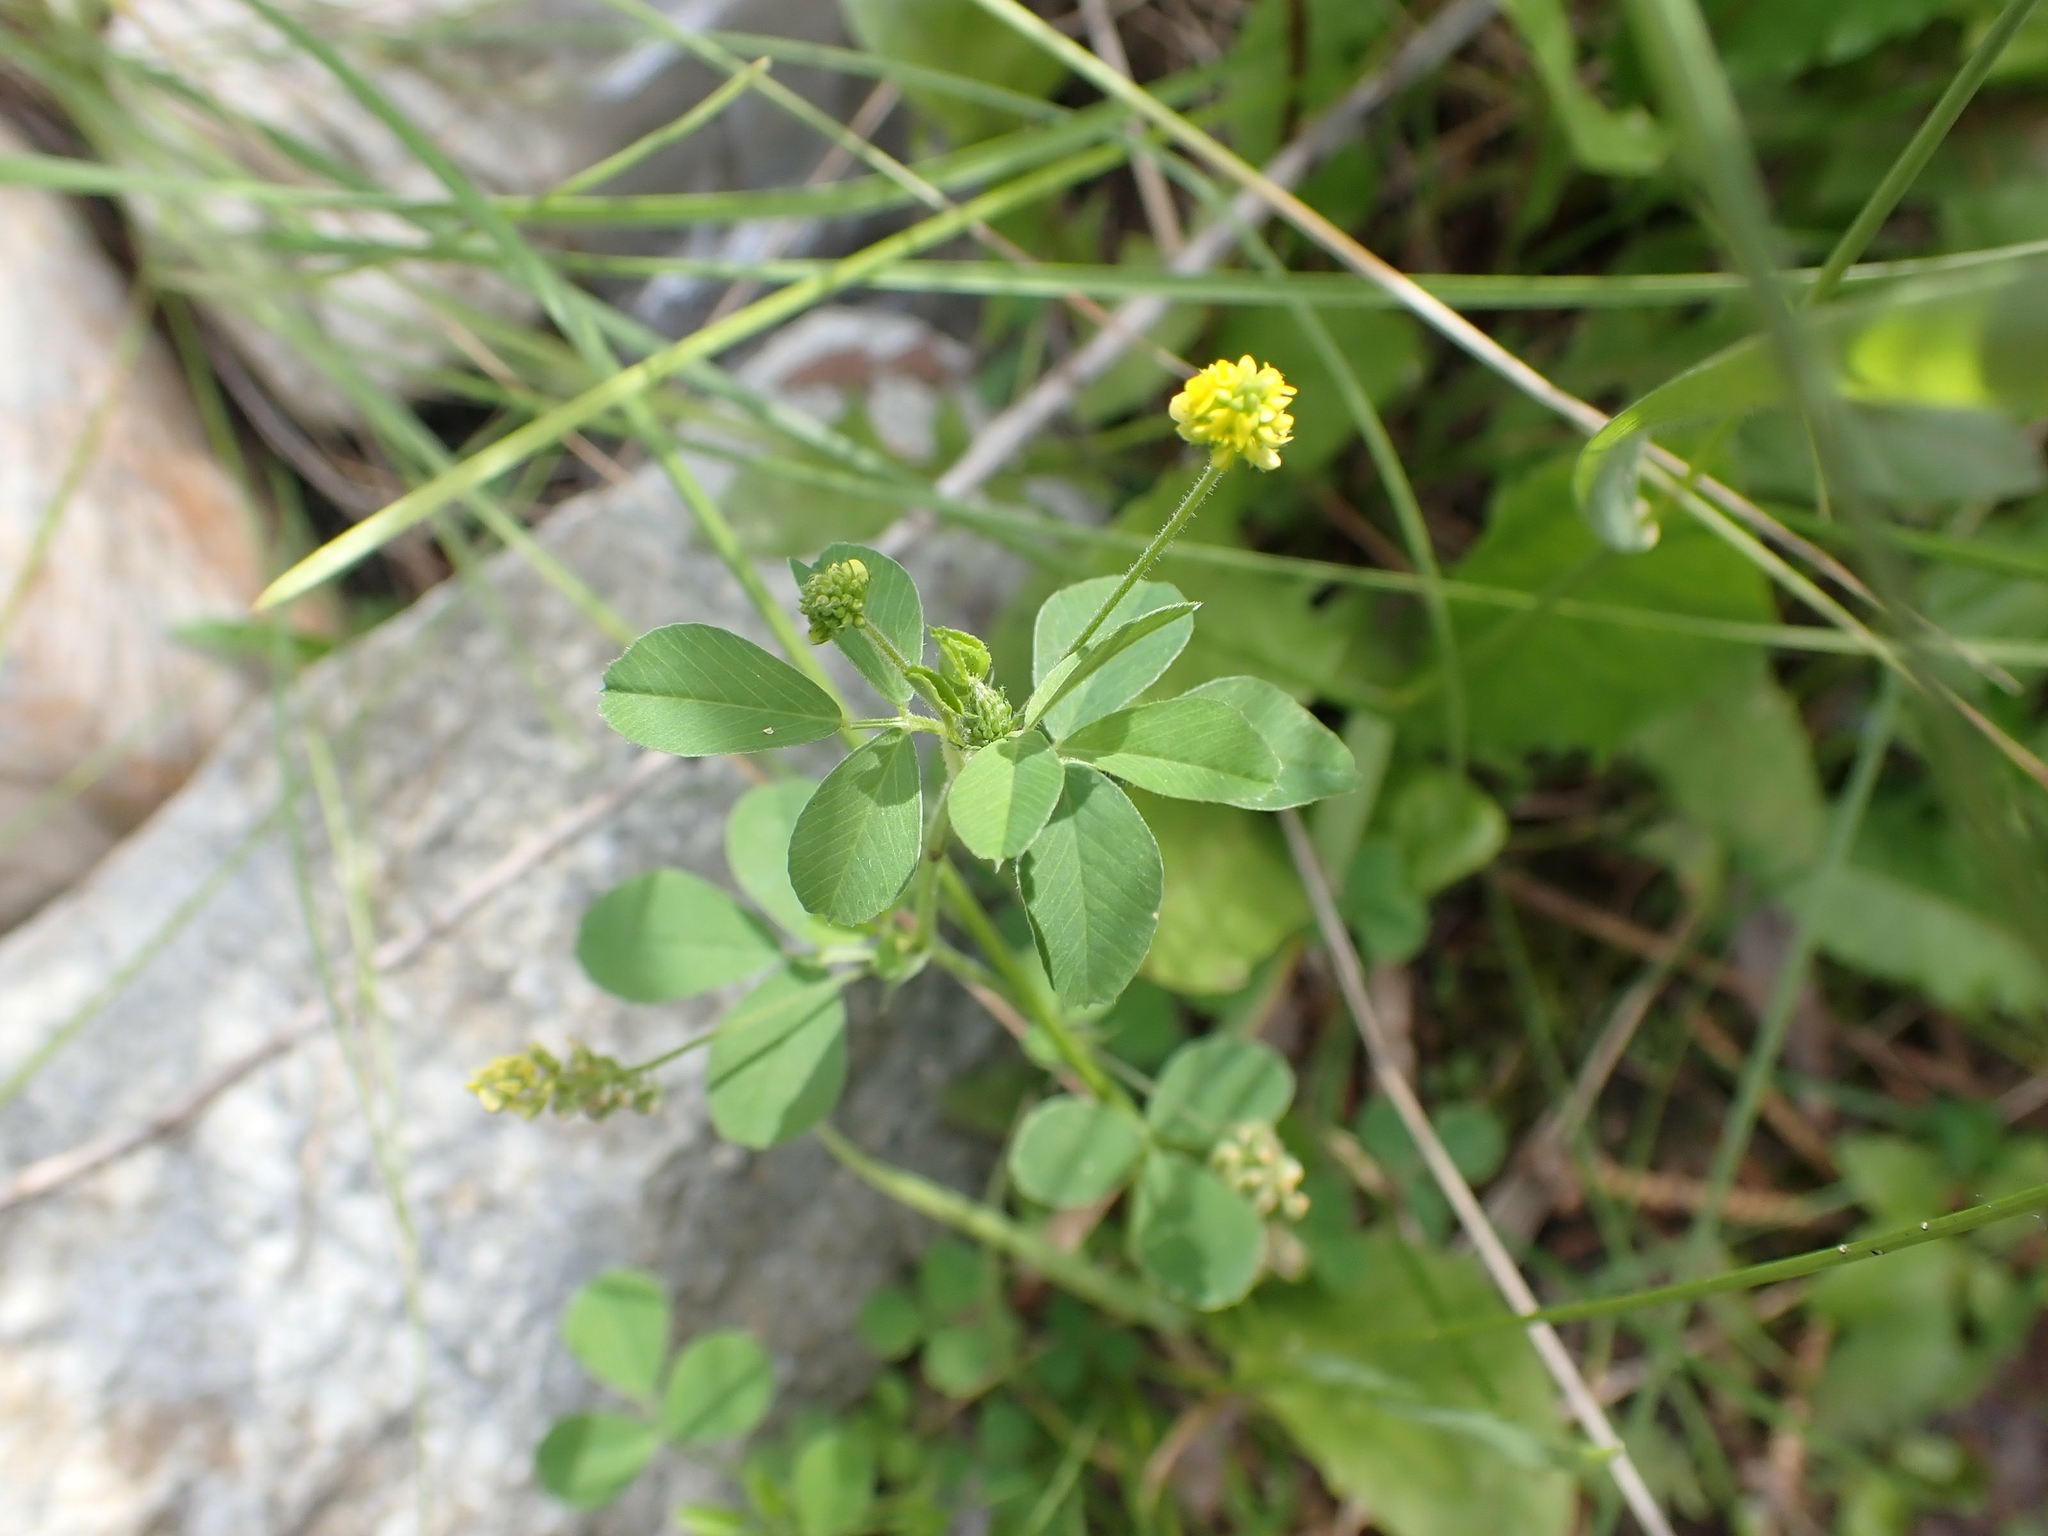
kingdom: Plantae
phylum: Tracheophyta
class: Magnoliopsida
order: Fabales
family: Fabaceae
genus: Medicago
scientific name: Medicago lupulina
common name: Black medick
